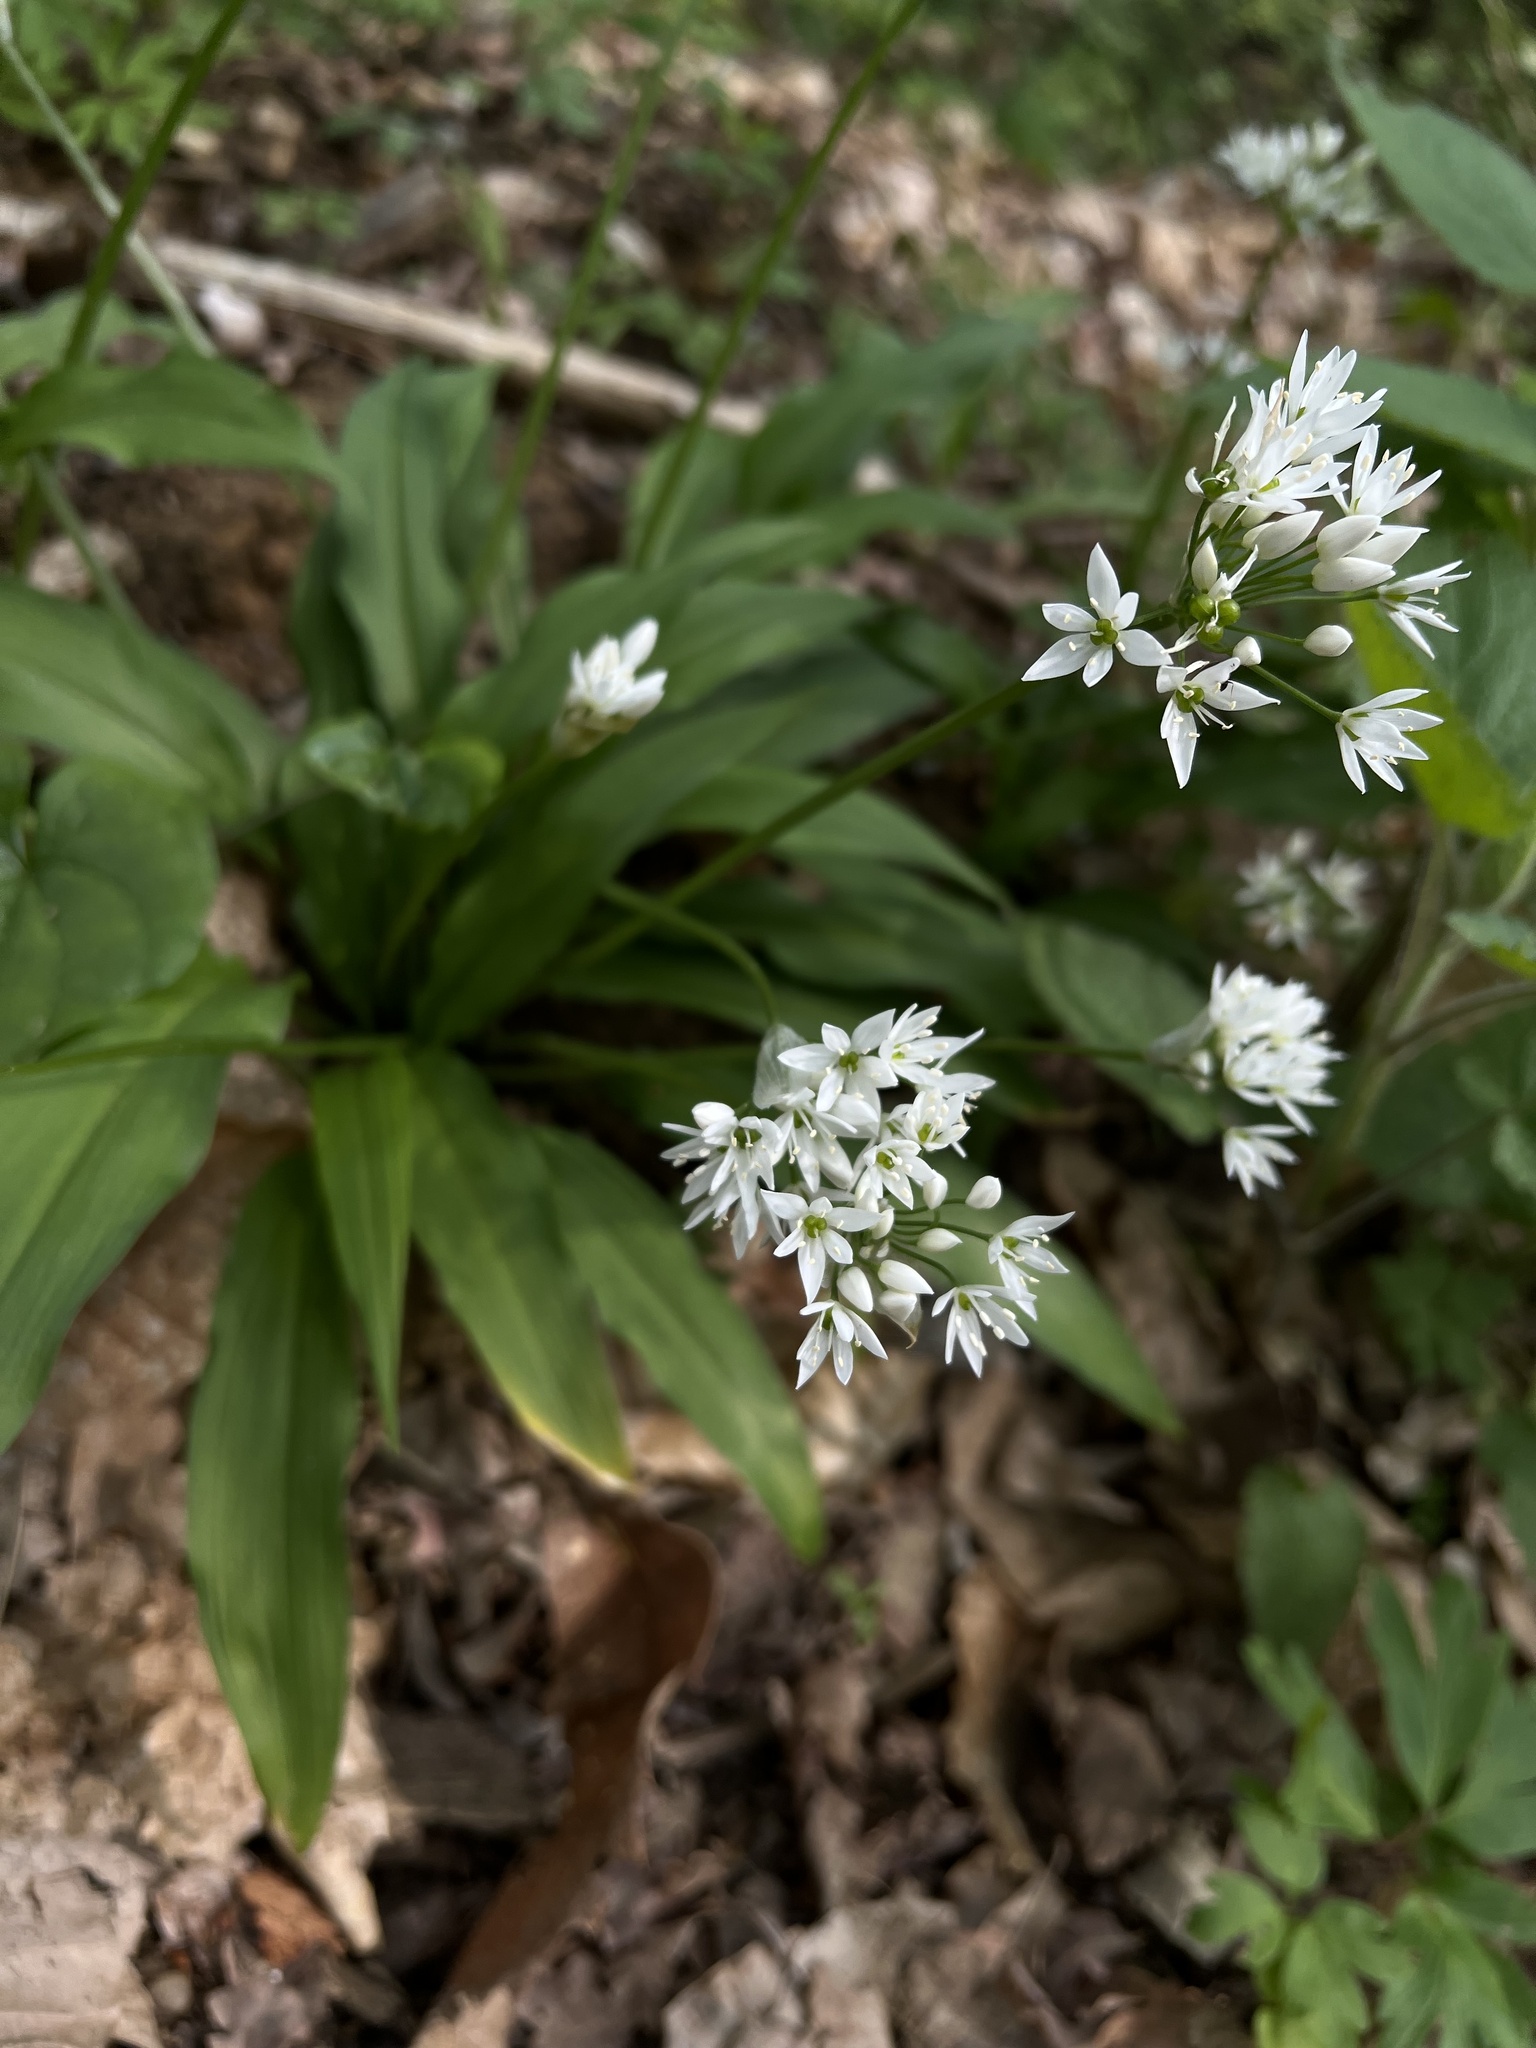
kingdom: Plantae
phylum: Tracheophyta
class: Liliopsida
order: Asparagales
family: Amaryllidaceae
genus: Allium
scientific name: Allium ursinum
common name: Ramsons
